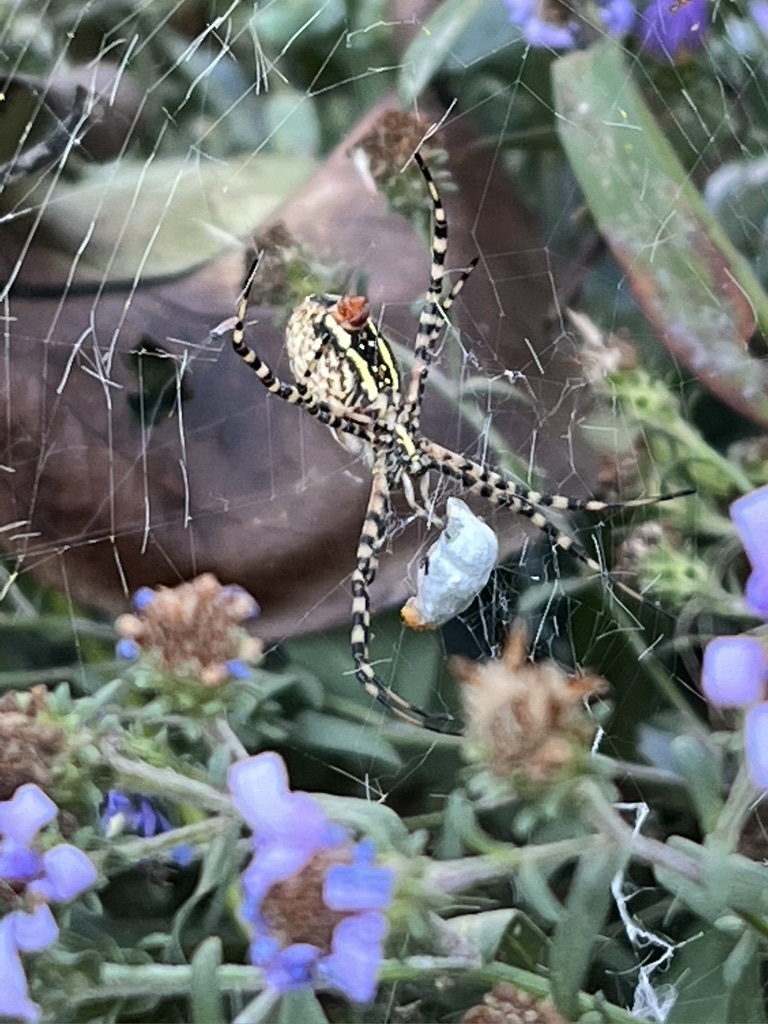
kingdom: Animalia
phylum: Arthropoda
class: Arachnida
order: Araneae
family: Araneidae
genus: Argiope
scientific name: Argiope trifasciata
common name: Banded garden spider
